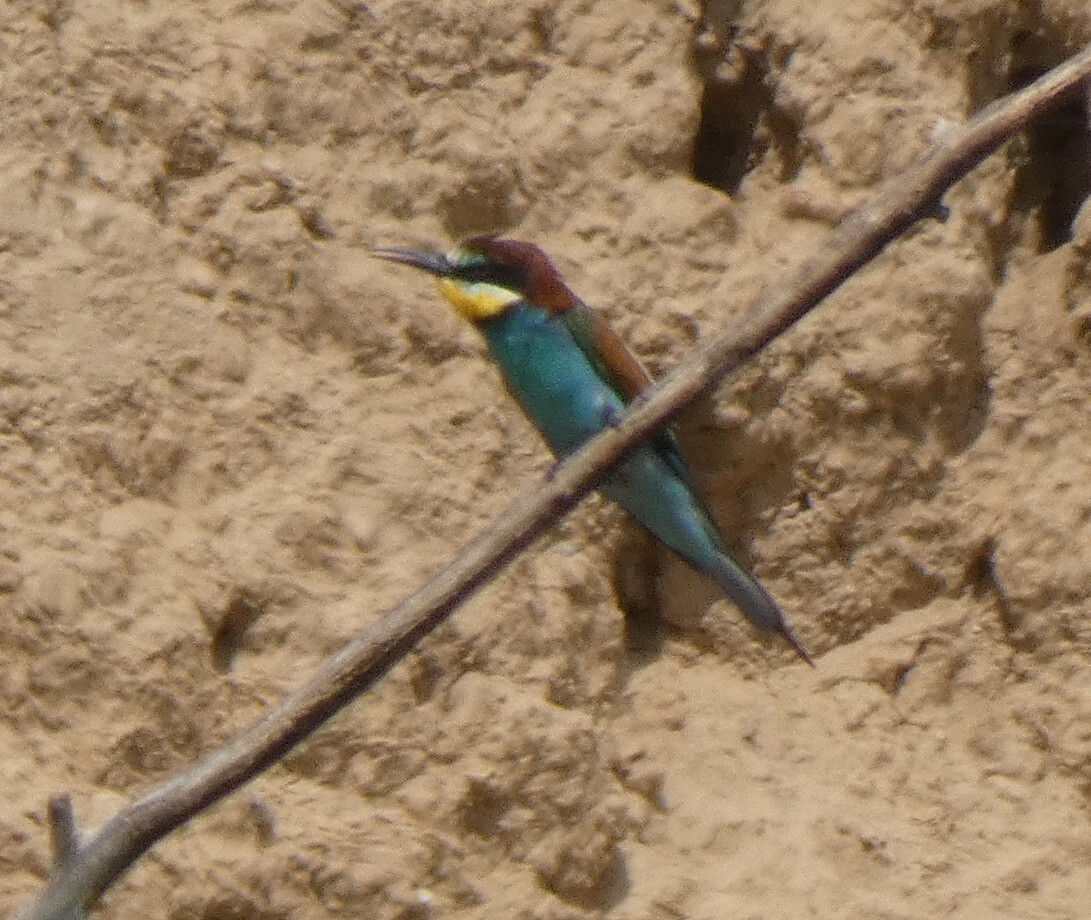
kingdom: Animalia
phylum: Chordata
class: Aves
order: Coraciiformes
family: Meropidae
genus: Merops
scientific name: Merops apiaster
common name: European bee-eater
